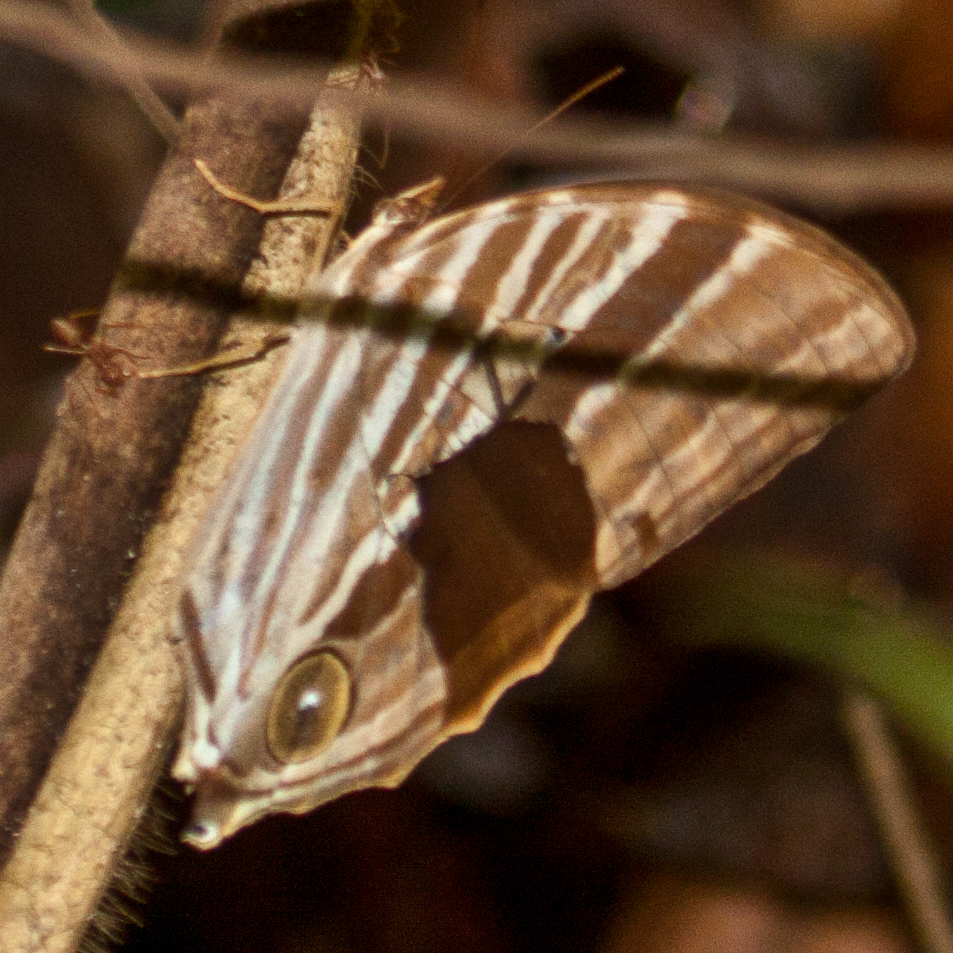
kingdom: Animalia
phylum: Arthropoda
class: Insecta
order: Lepidoptera
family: Nymphalidae
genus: Amathusia
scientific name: Amathusia phidippus
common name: Palm king
